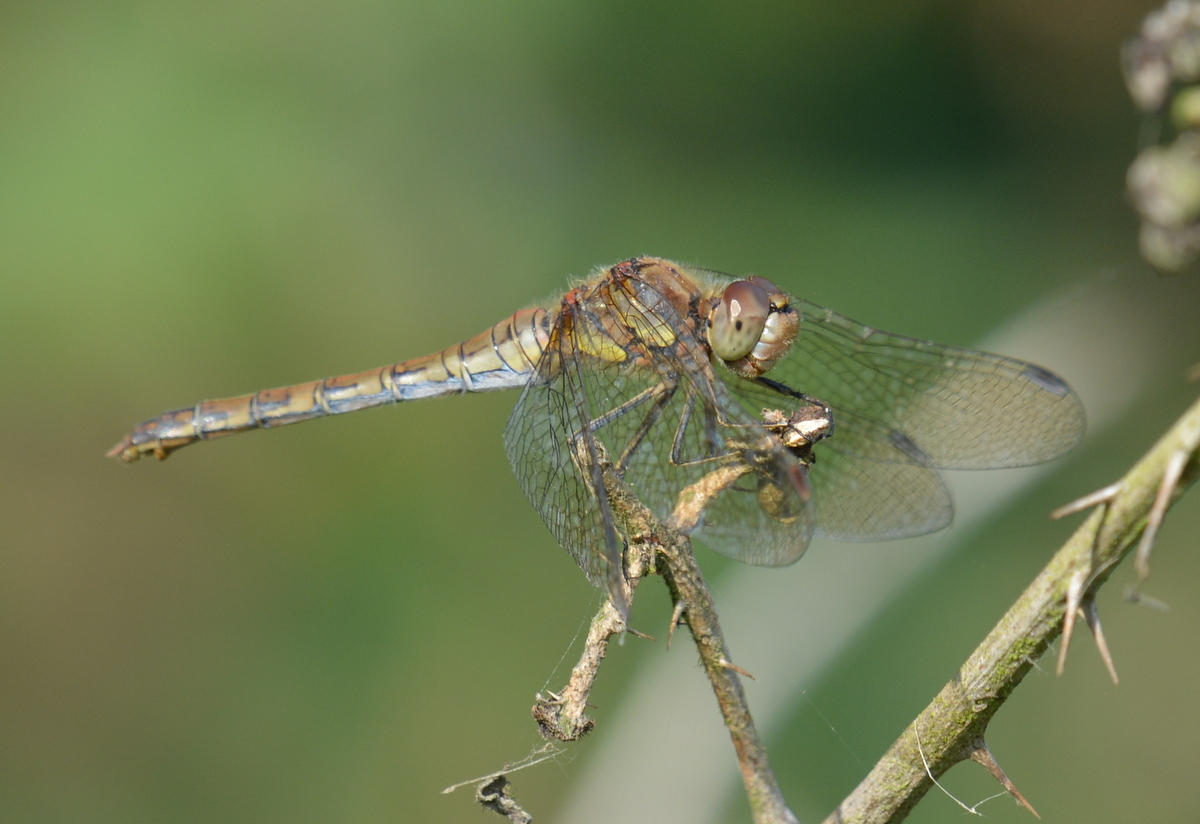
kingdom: Animalia
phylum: Arthropoda
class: Insecta
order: Odonata
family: Libellulidae
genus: Sympetrum
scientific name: Sympetrum striolatum
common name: Common darter
